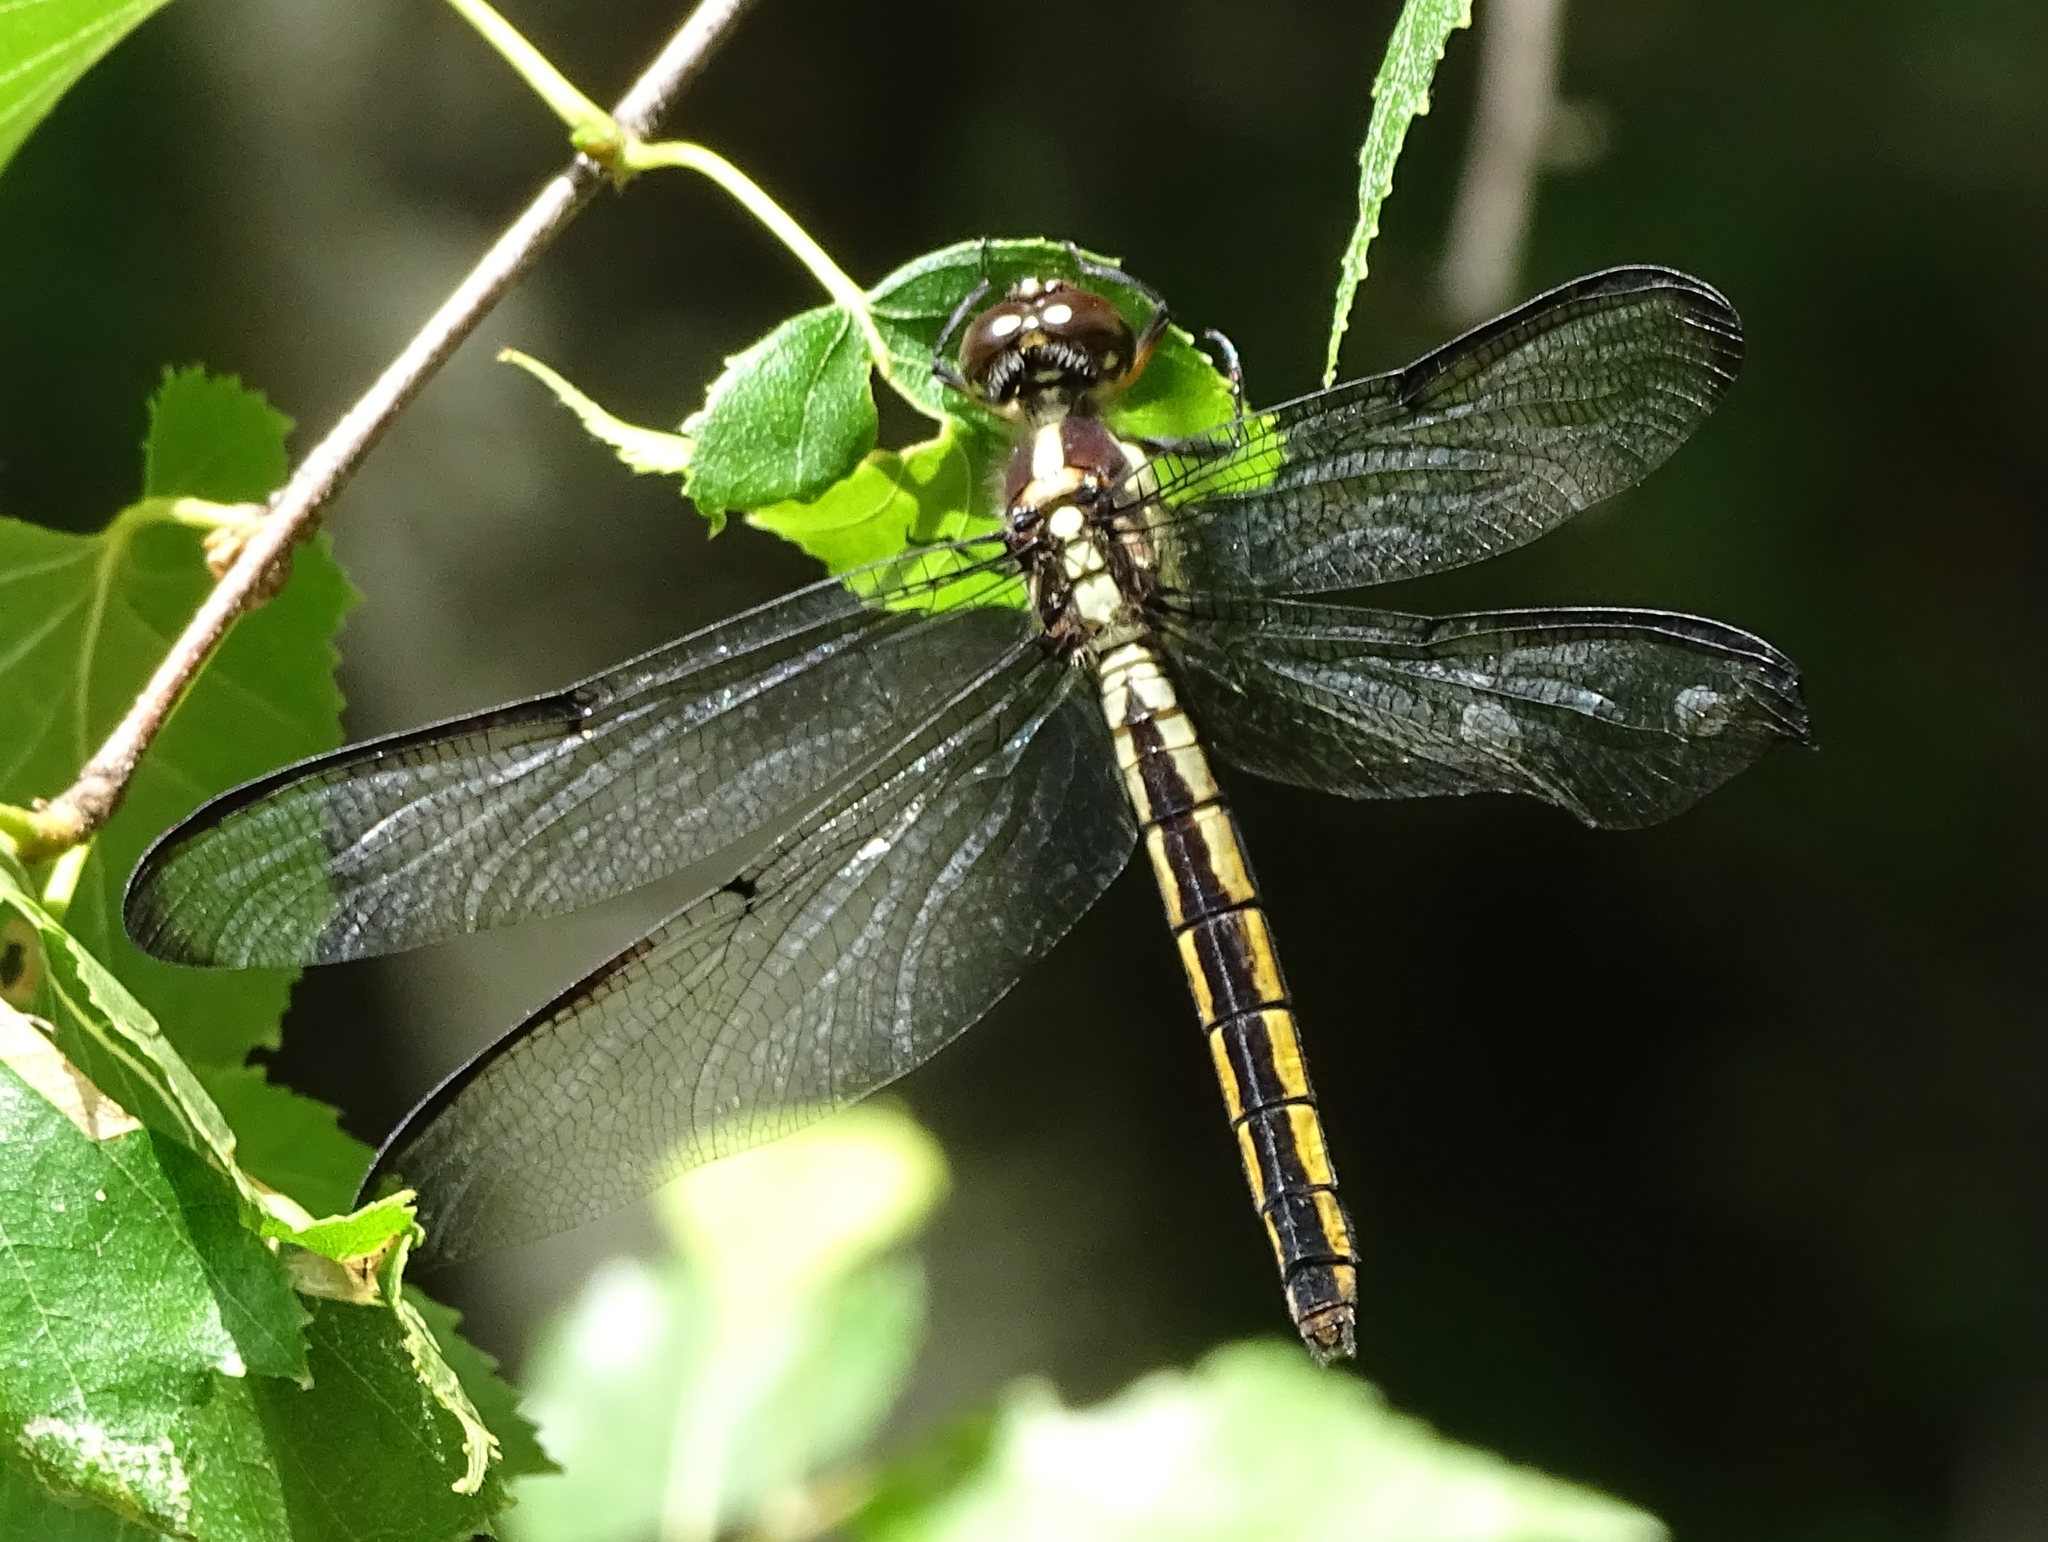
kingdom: Animalia
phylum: Arthropoda
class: Insecta
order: Odonata
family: Libellulidae
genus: Libellula
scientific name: Libellula incesta
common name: Slaty skimmer
